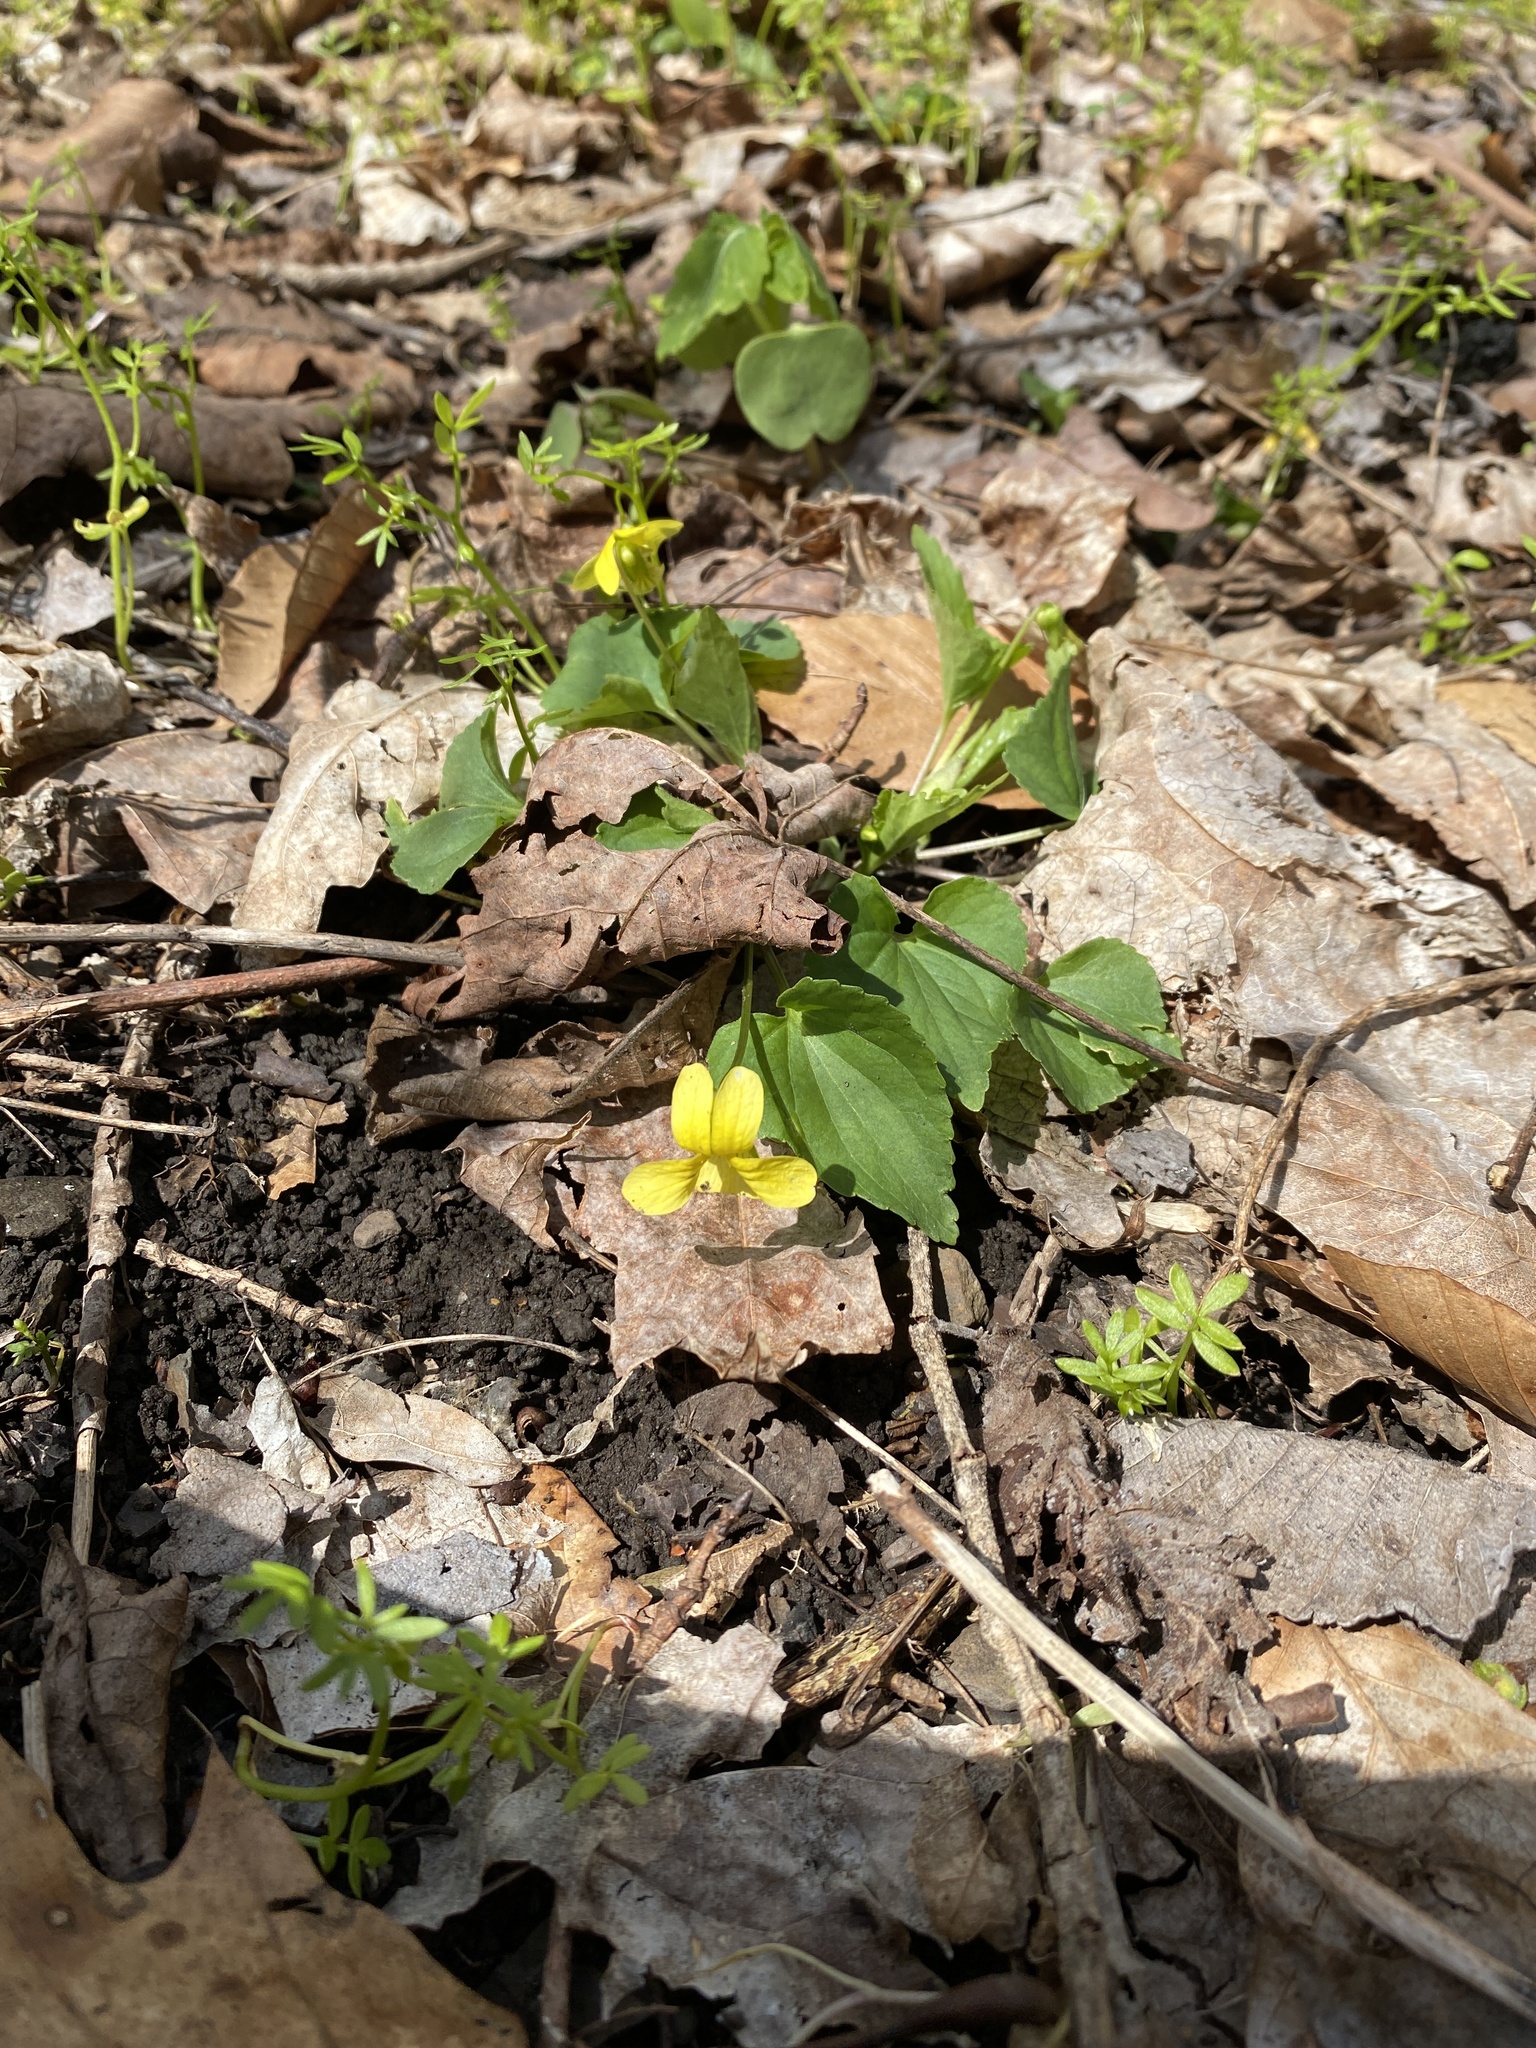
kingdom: Plantae
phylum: Tracheophyta
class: Magnoliopsida
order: Malpighiales
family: Violaceae
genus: Viola
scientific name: Viola eriocarpa
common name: Smooth yellow violet
